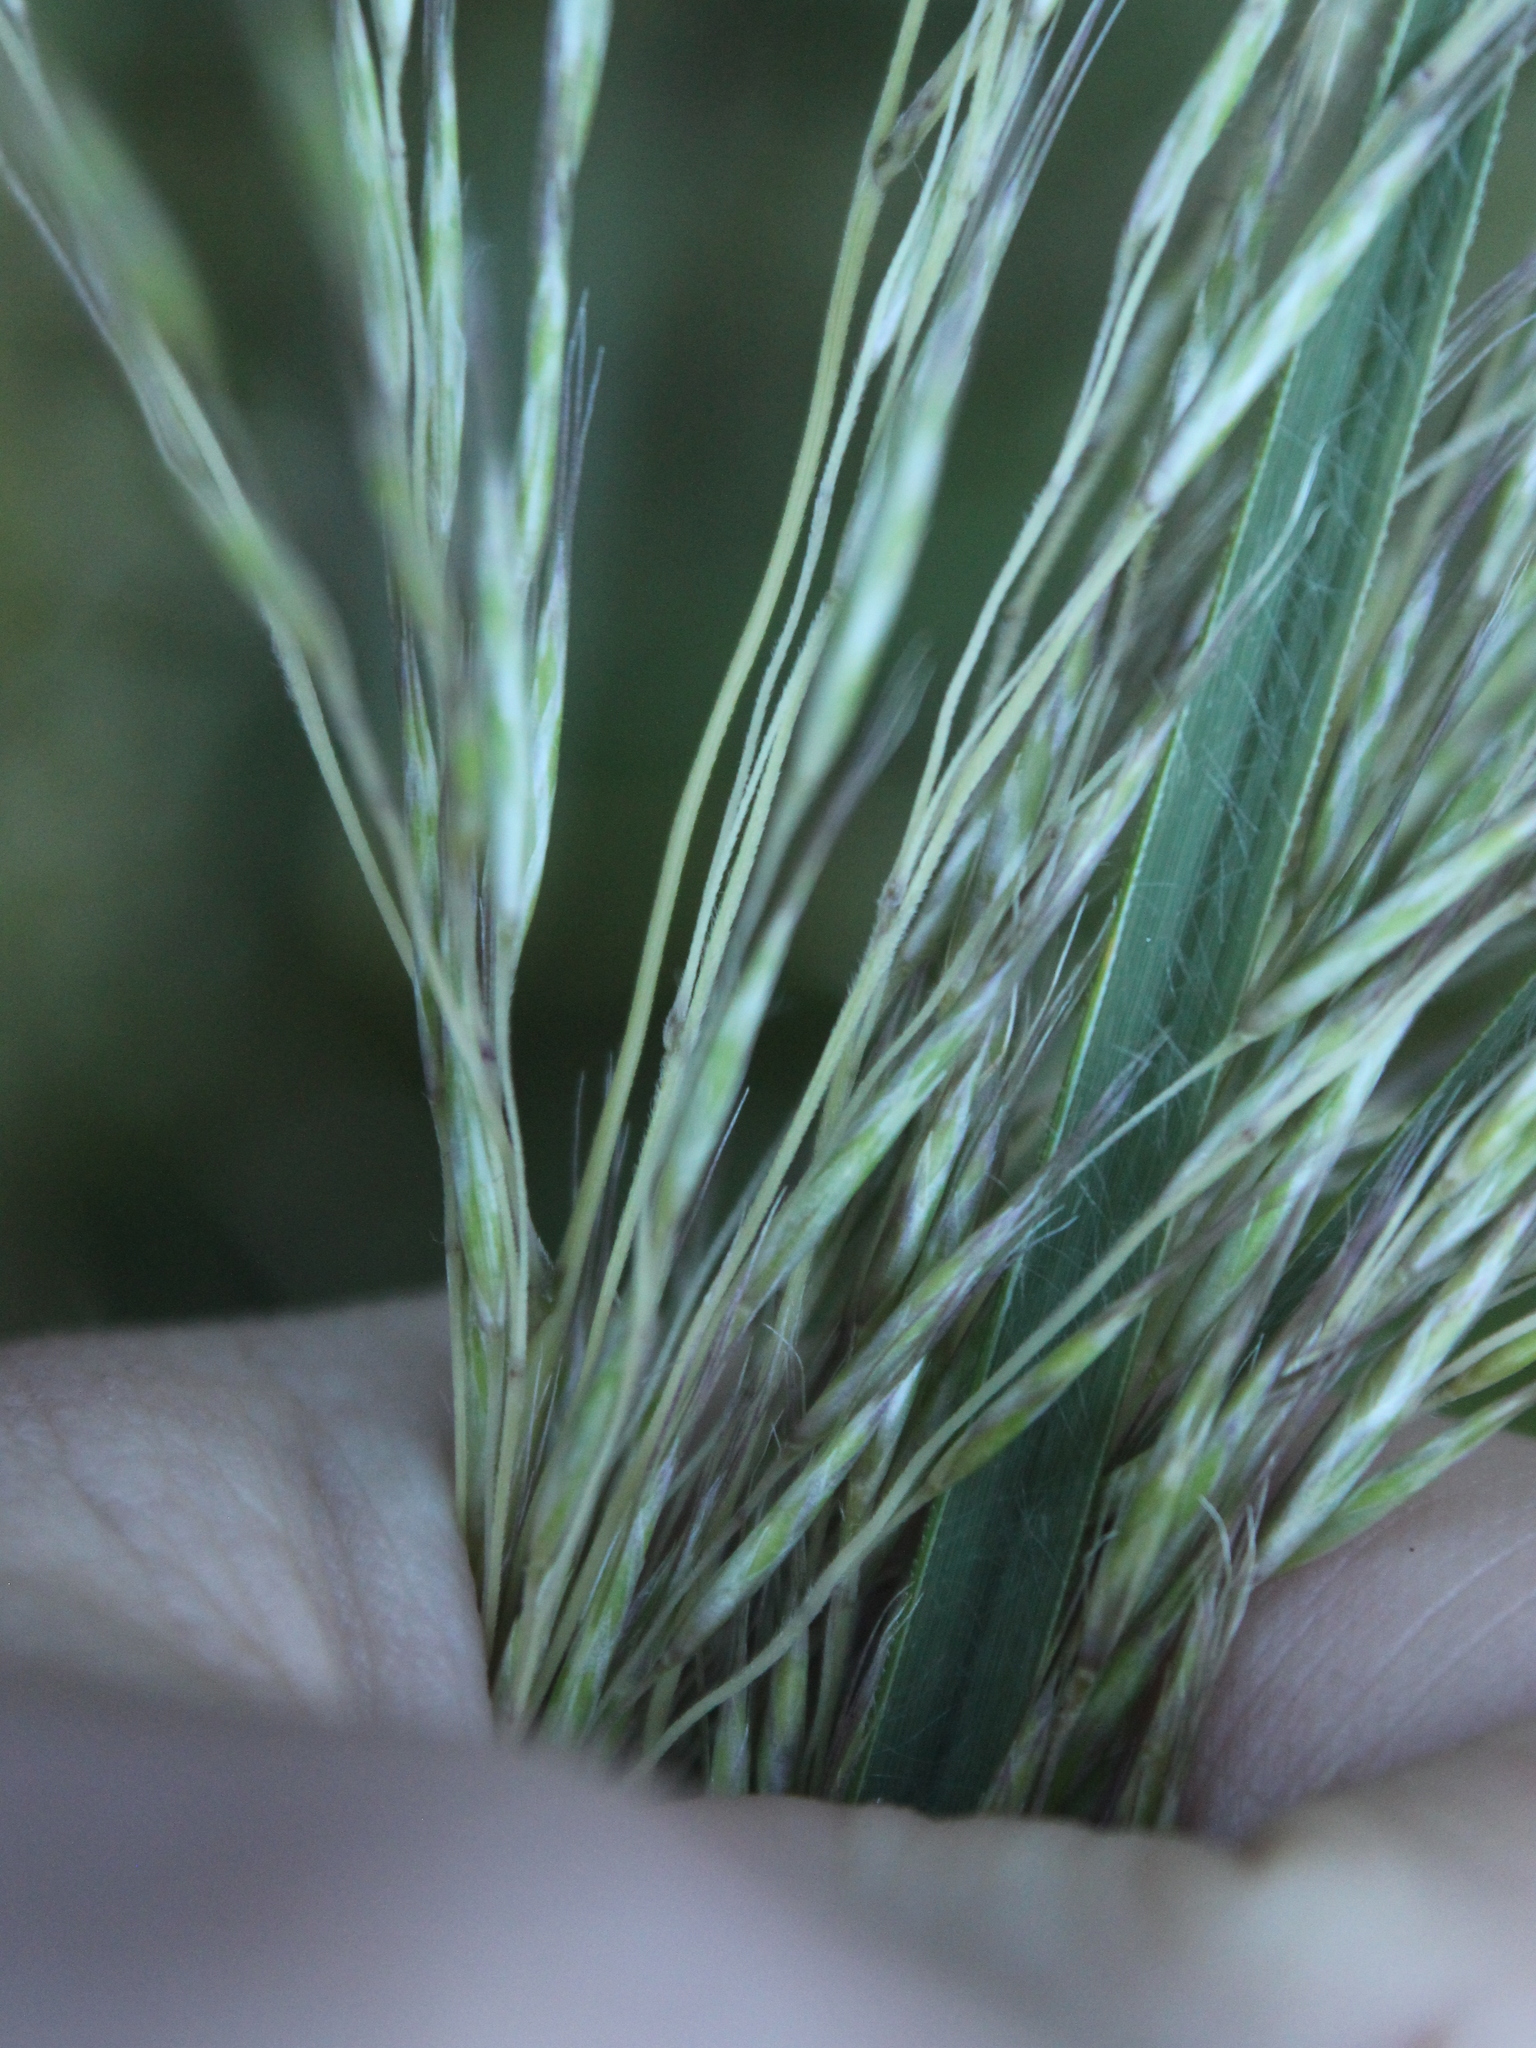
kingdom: Plantae
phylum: Tracheophyta
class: Liliopsida
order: Poales
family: Poaceae
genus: Chionochloa
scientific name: Chionochloa conspicua
